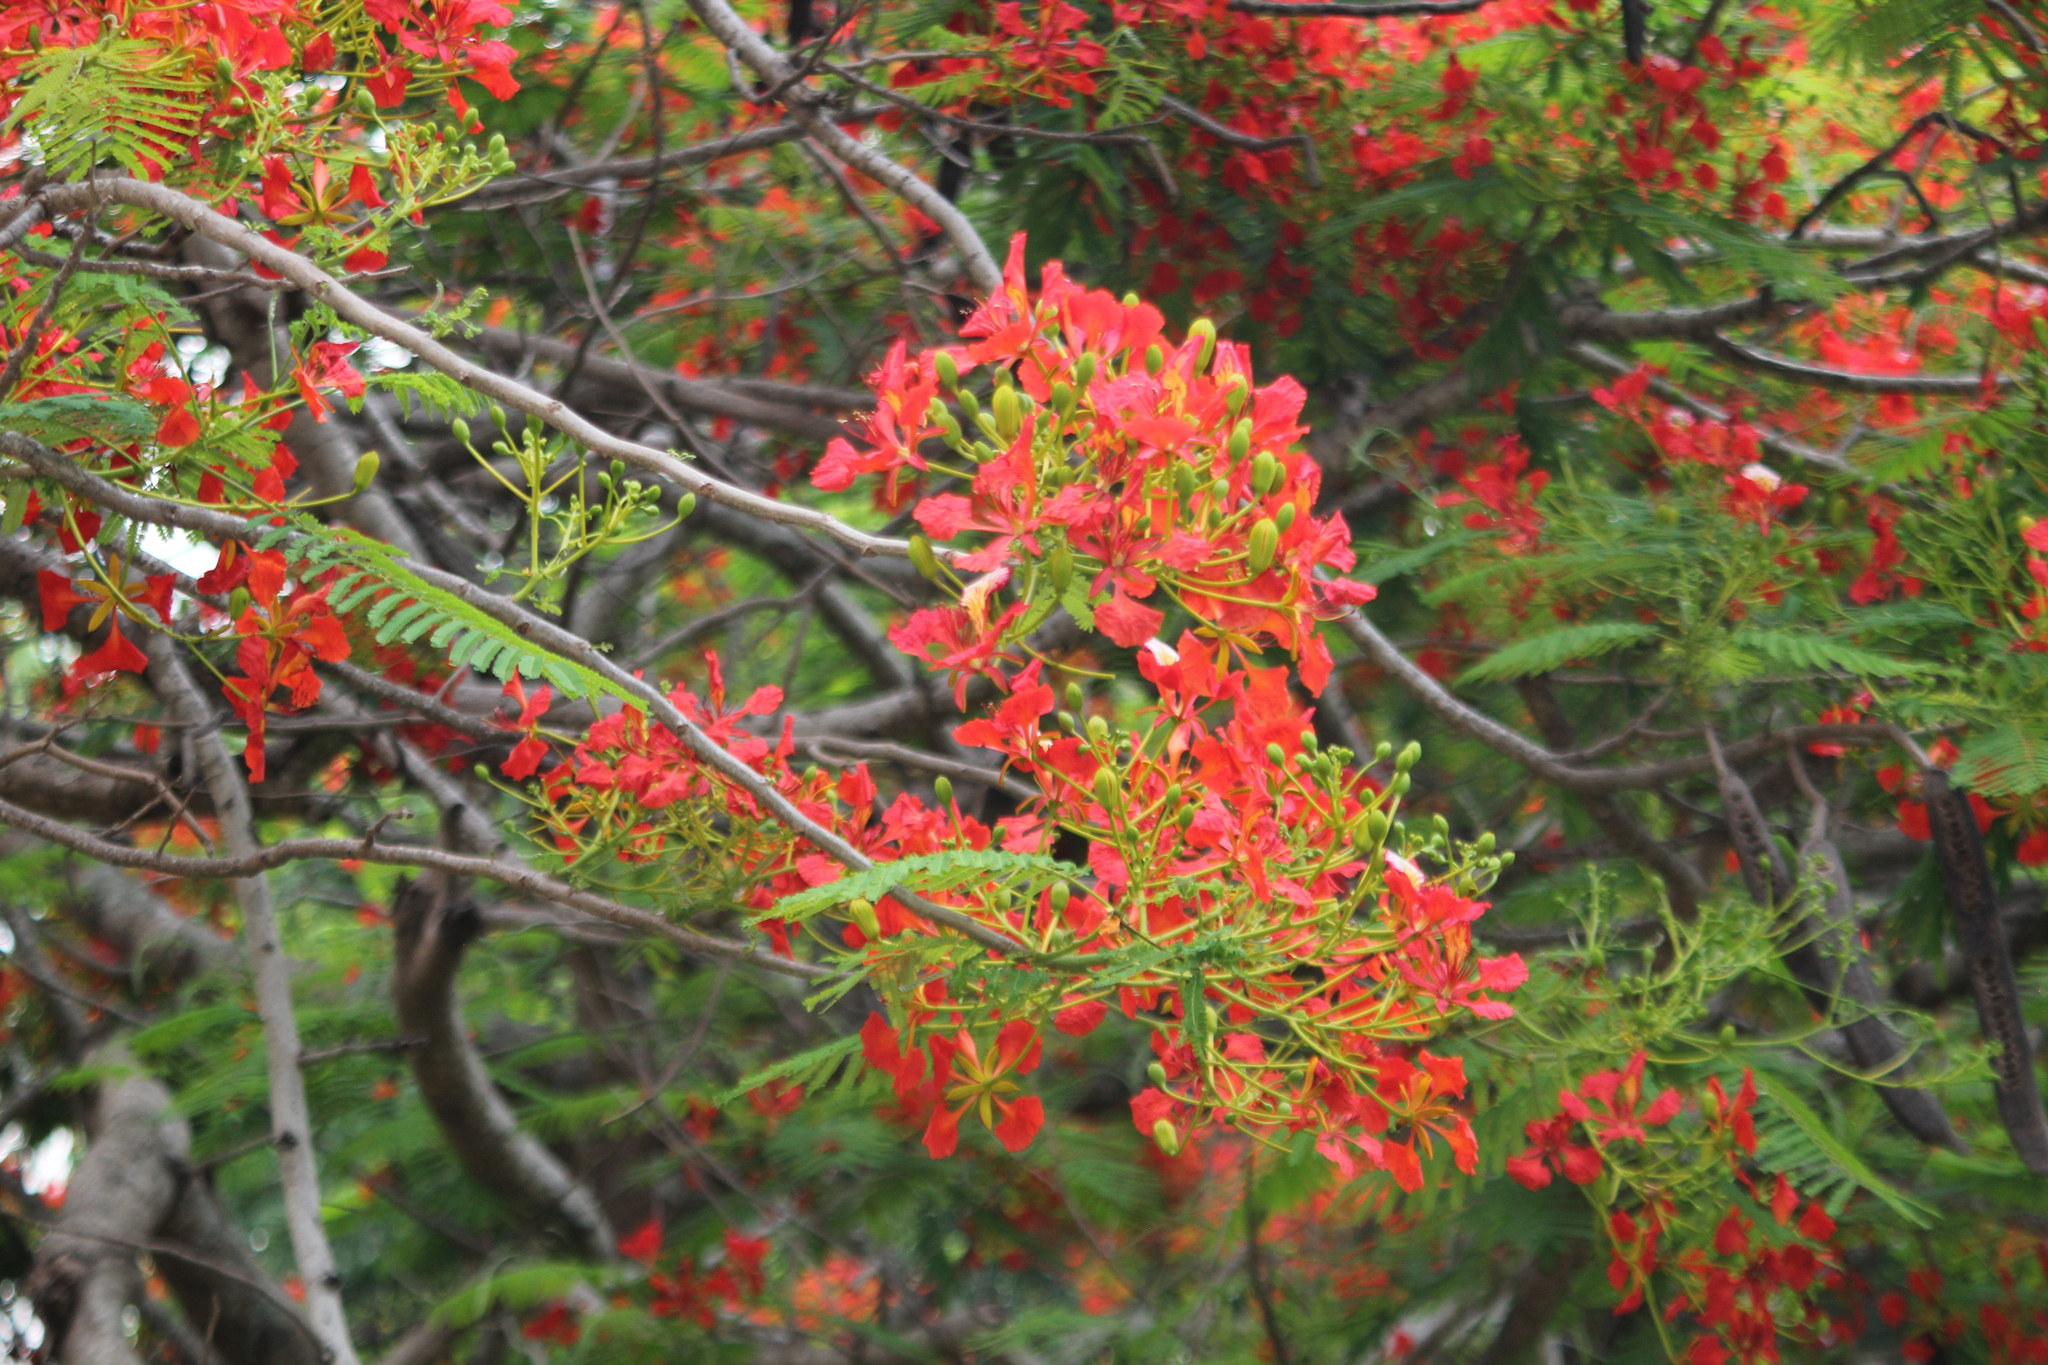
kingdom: Plantae
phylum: Tracheophyta
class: Magnoliopsida
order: Fabales
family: Fabaceae
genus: Delonix
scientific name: Delonix regia
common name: Royal poinciana
